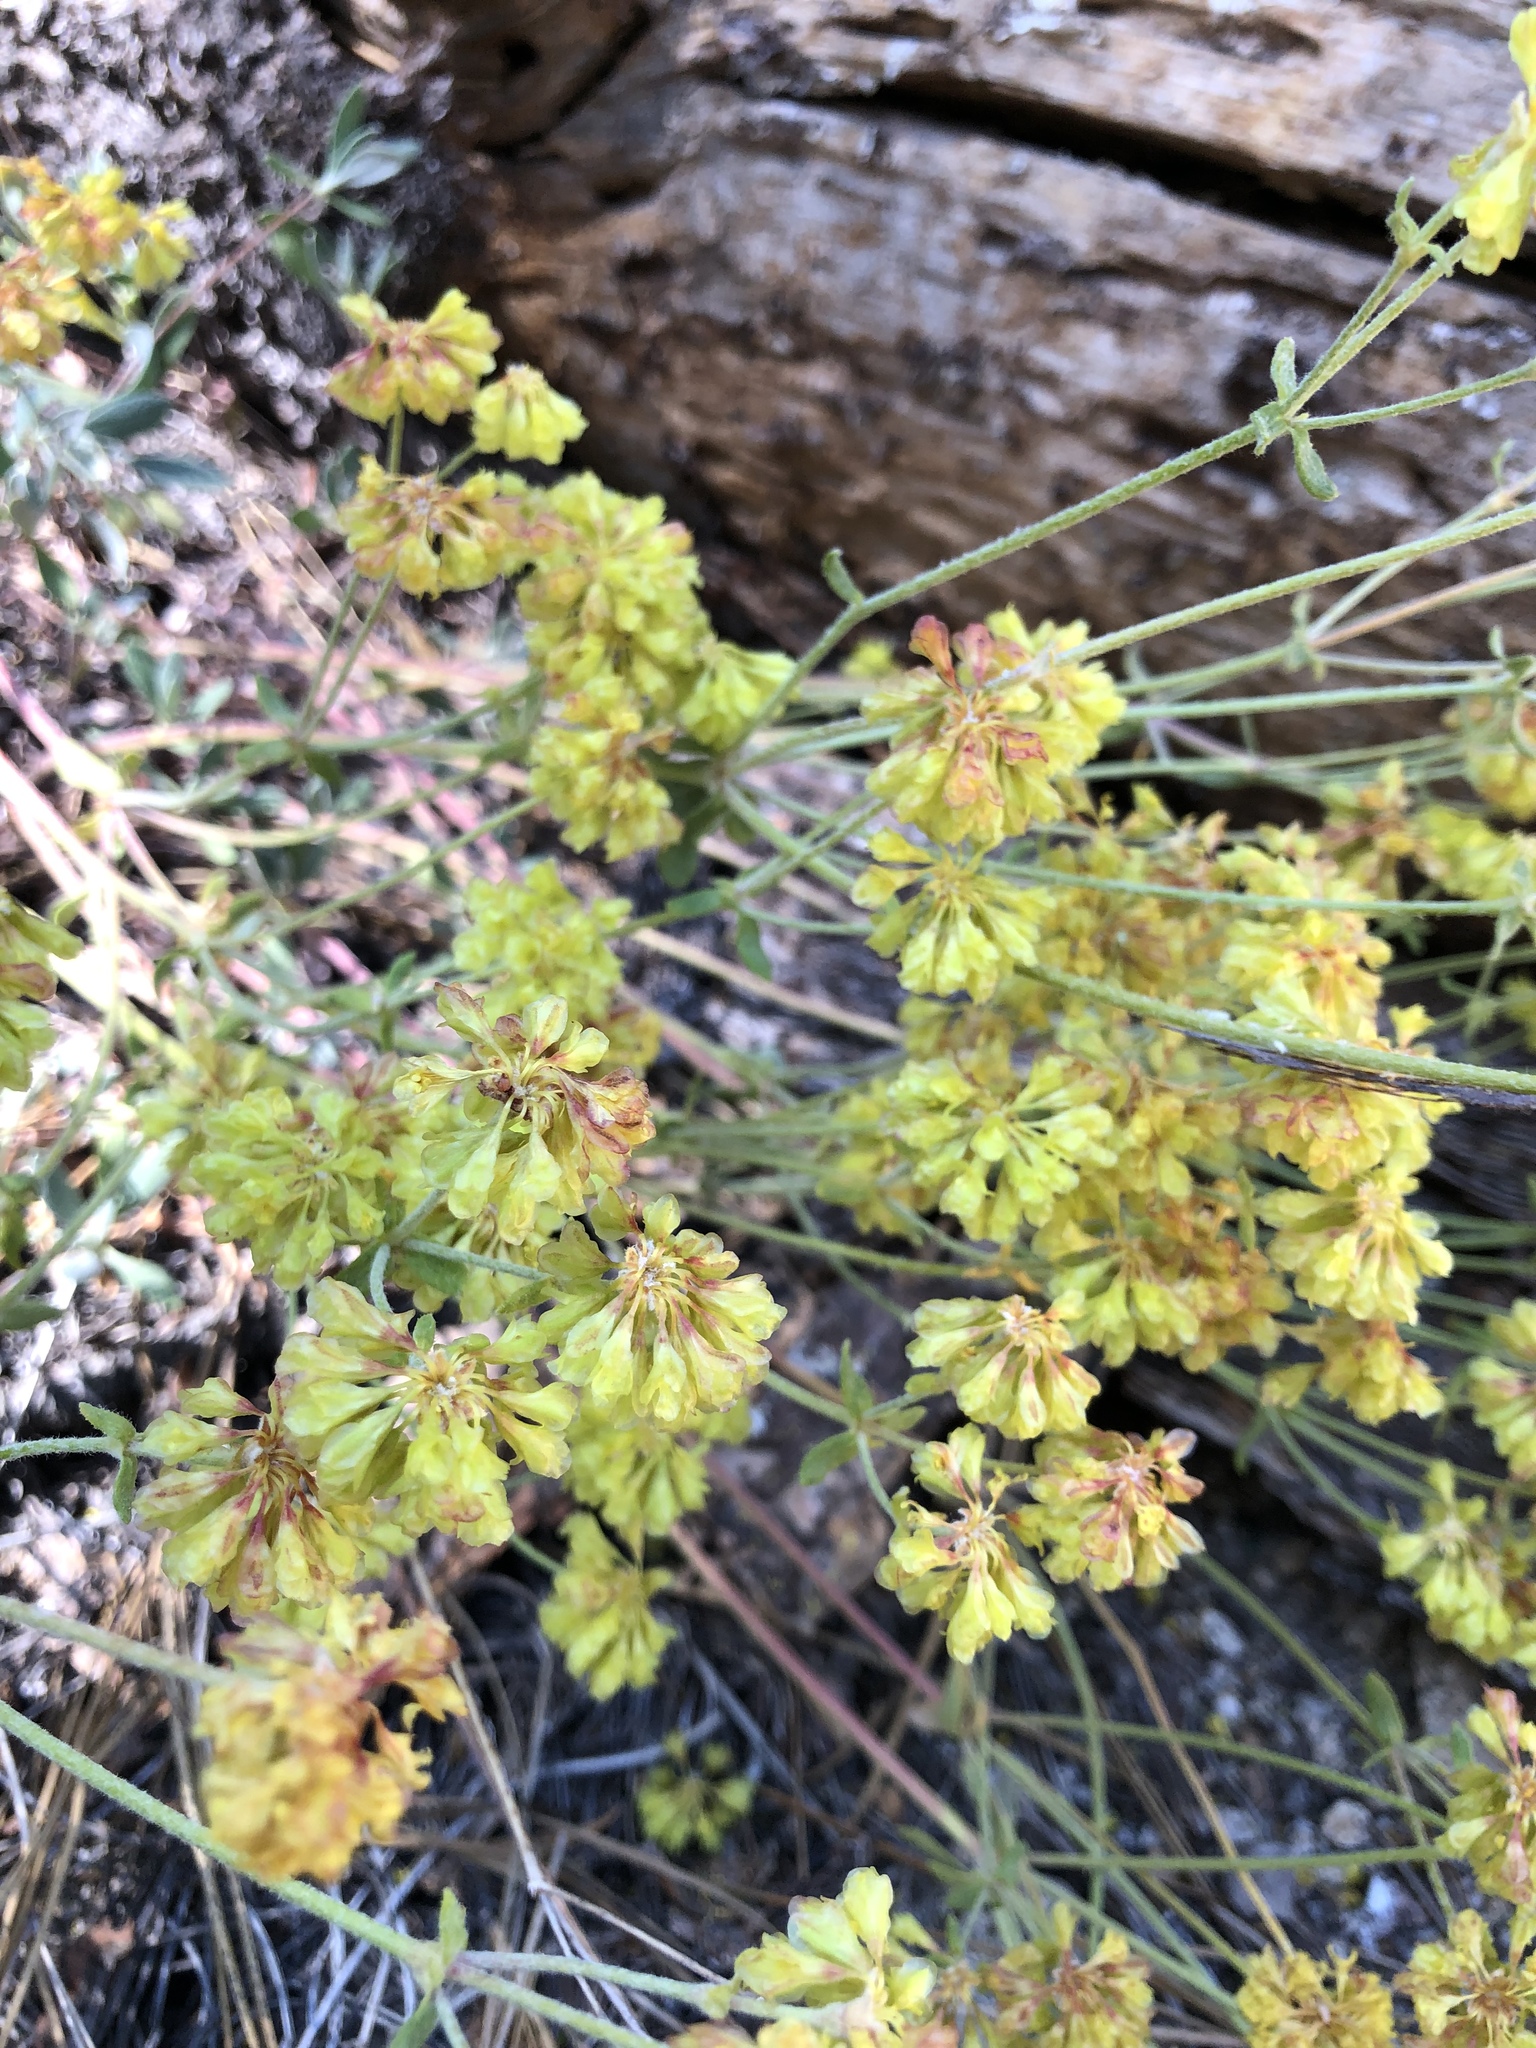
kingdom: Plantae
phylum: Tracheophyta
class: Magnoliopsida
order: Caryophyllales
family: Polygonaceae
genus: Eriogonum
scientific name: Eriogonum umbellatum
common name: Sulfur-buckwheat
